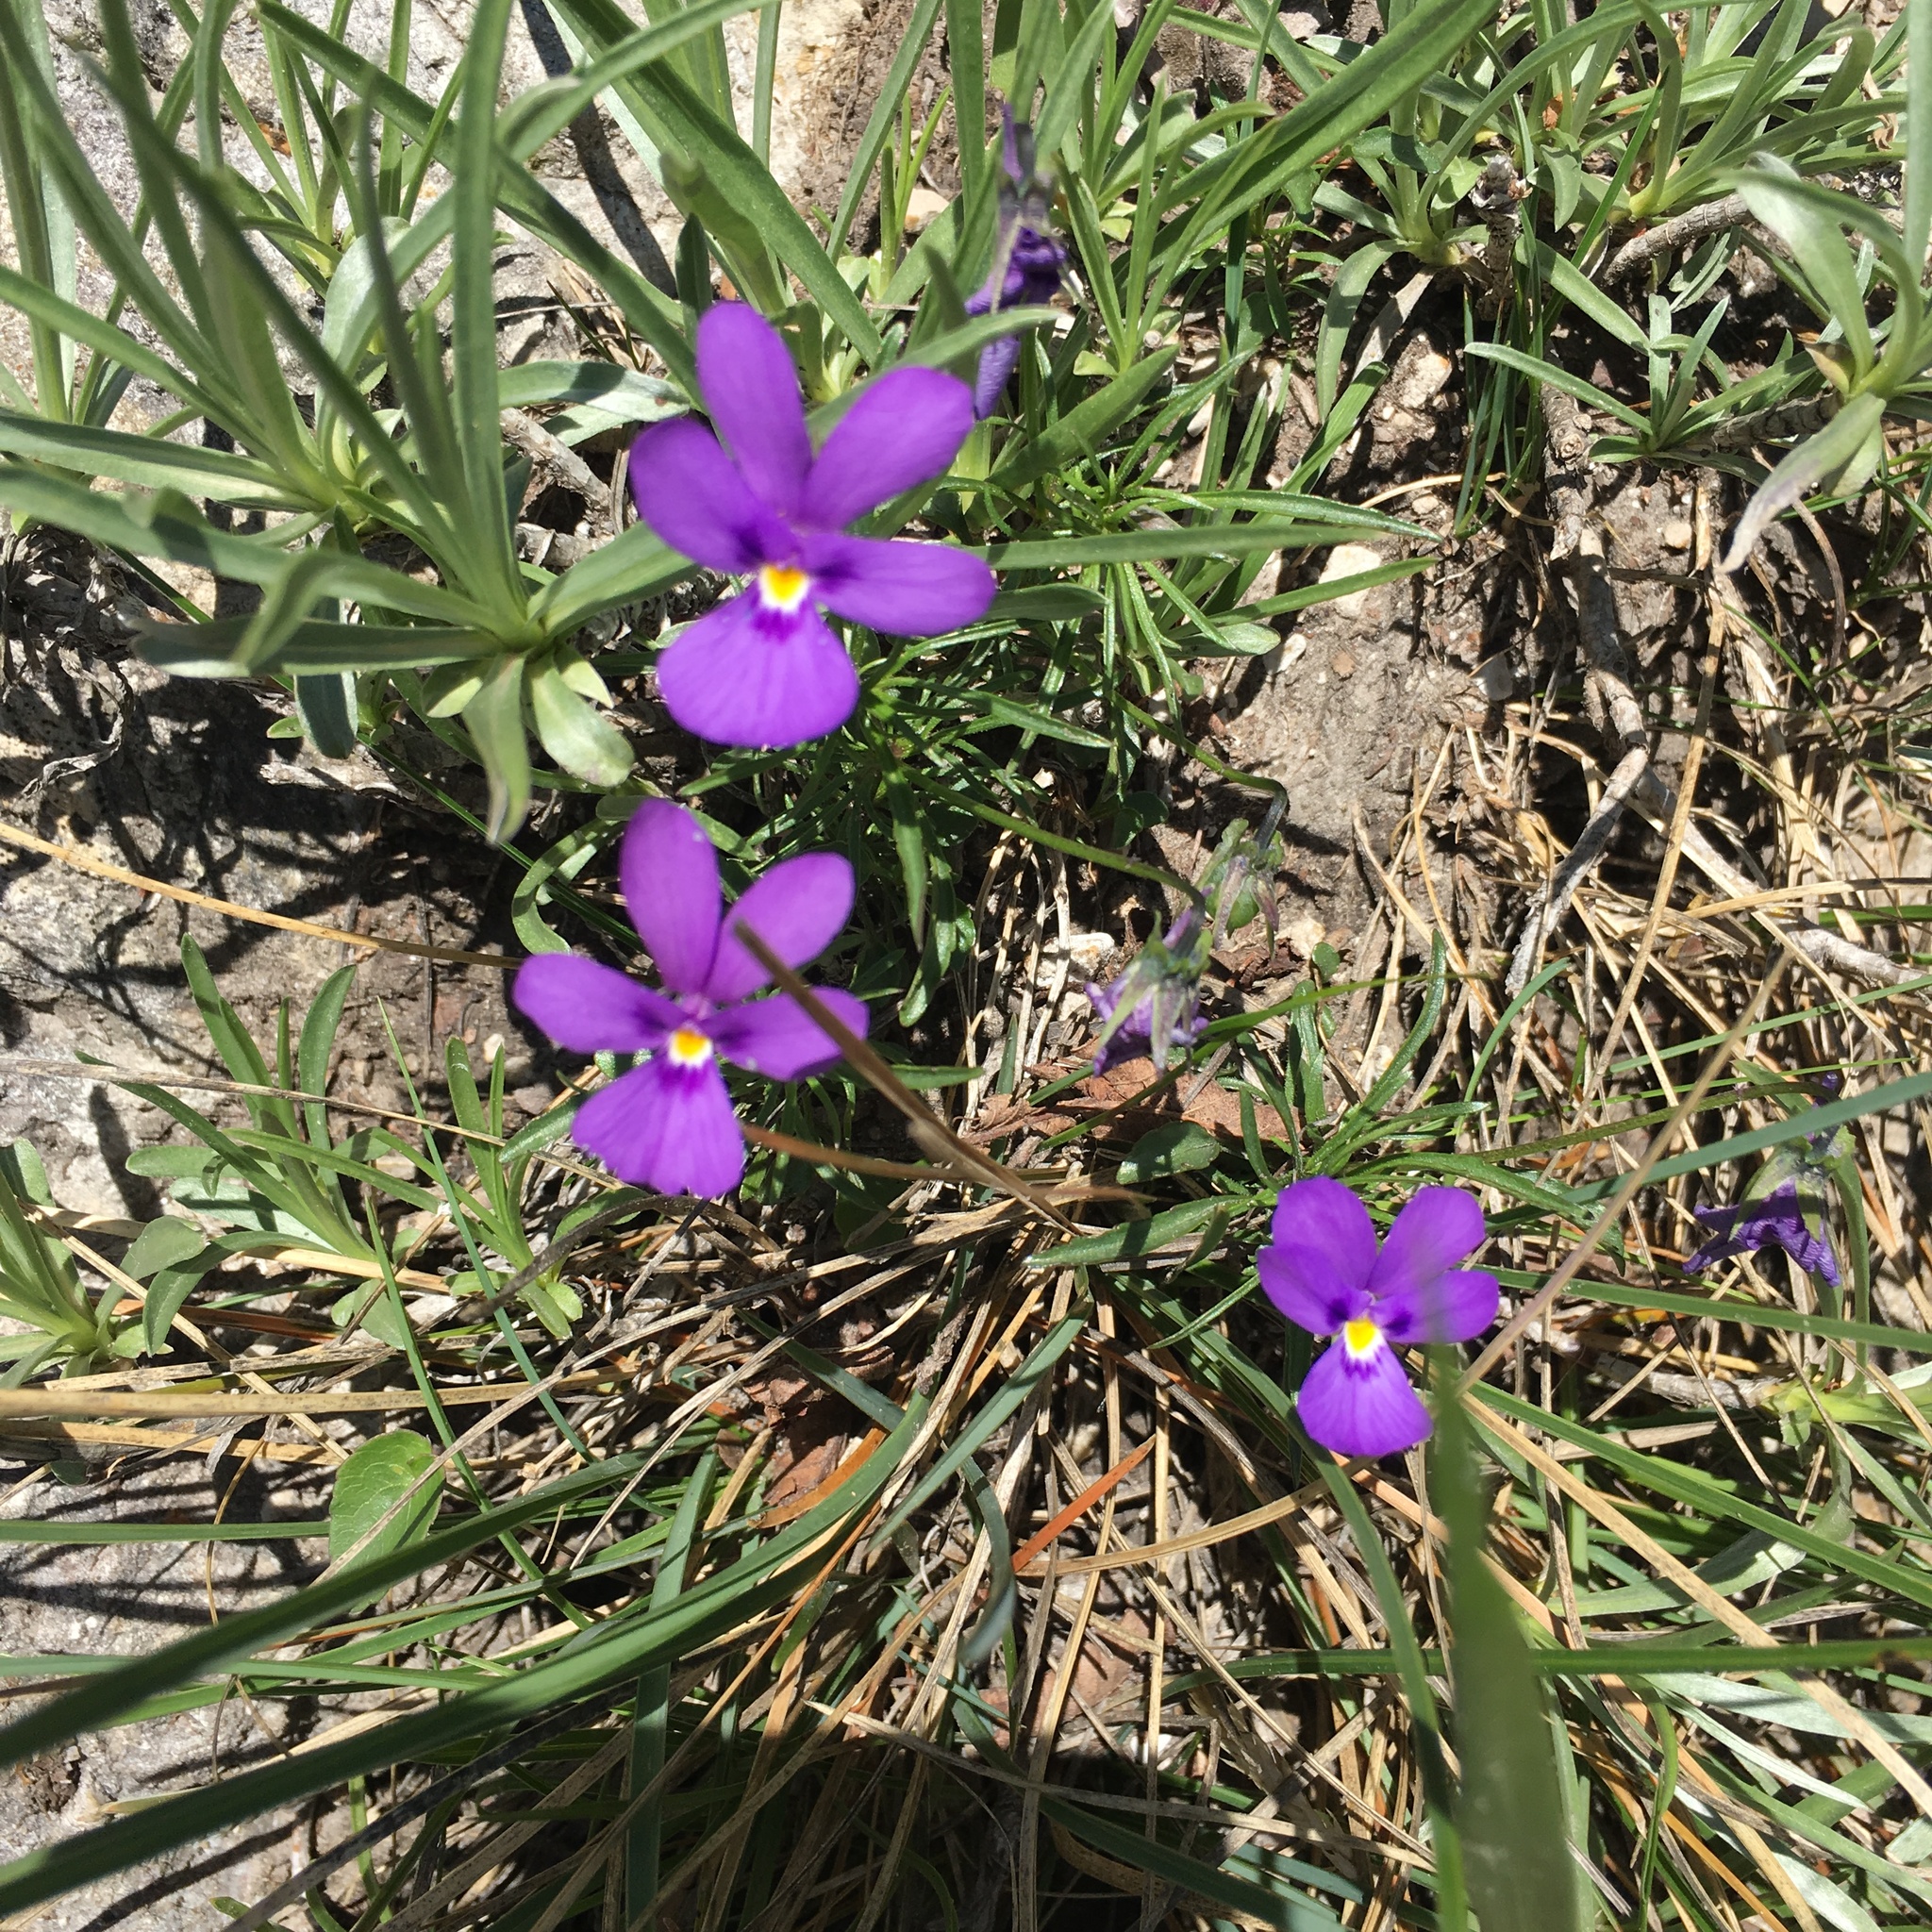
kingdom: Plantae
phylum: Tracheophyta
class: Magnoliopsida
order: Malpighiales
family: Violaceae
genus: Viola
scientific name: Viola dubyana
